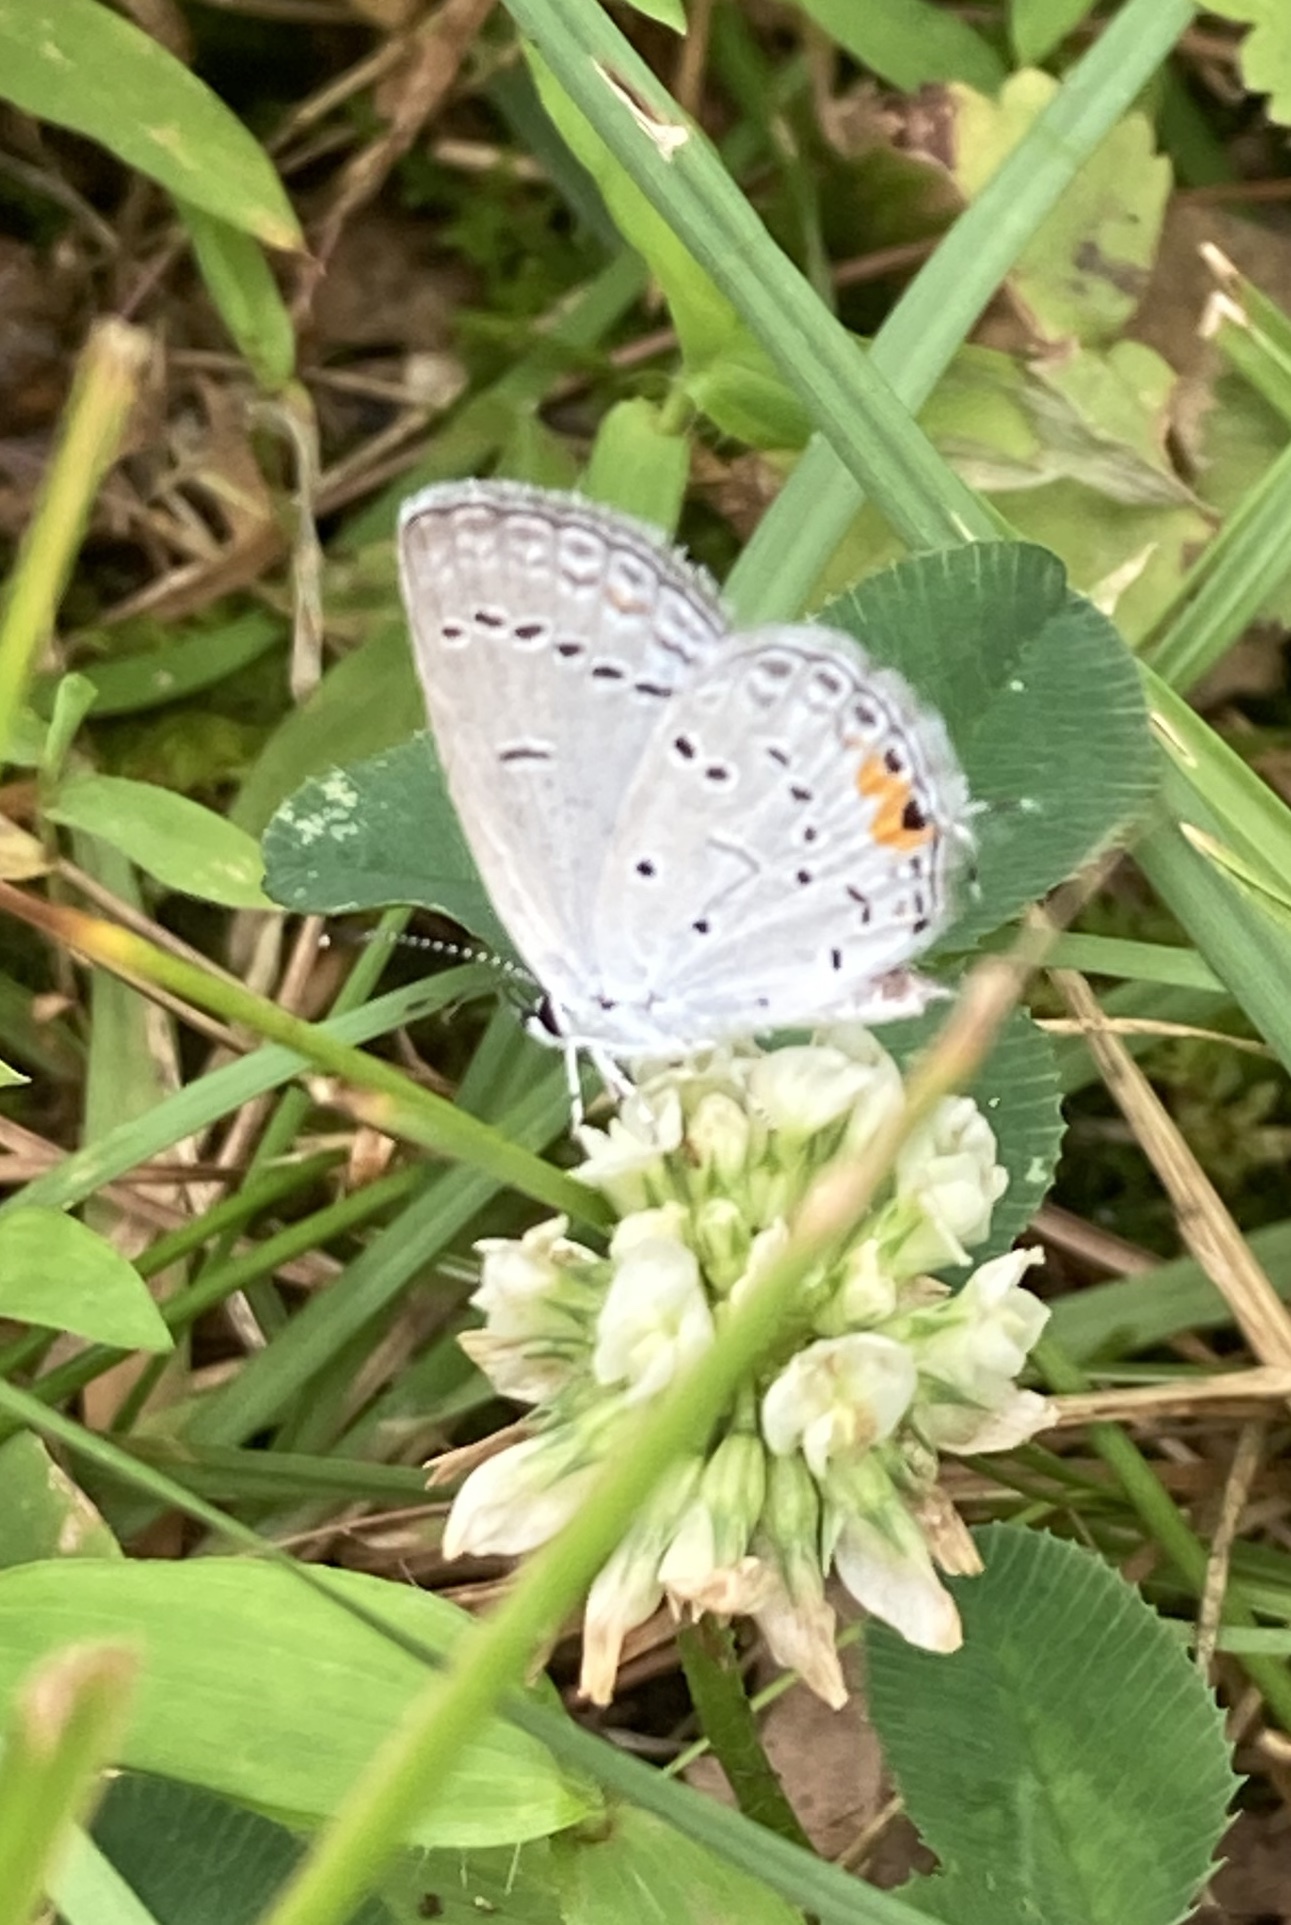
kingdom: Animalia
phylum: Arthropoda
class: Insecta
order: Lepidoptera
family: Lycaenidae
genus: Elkalyce
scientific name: Elkalyce comyntas
